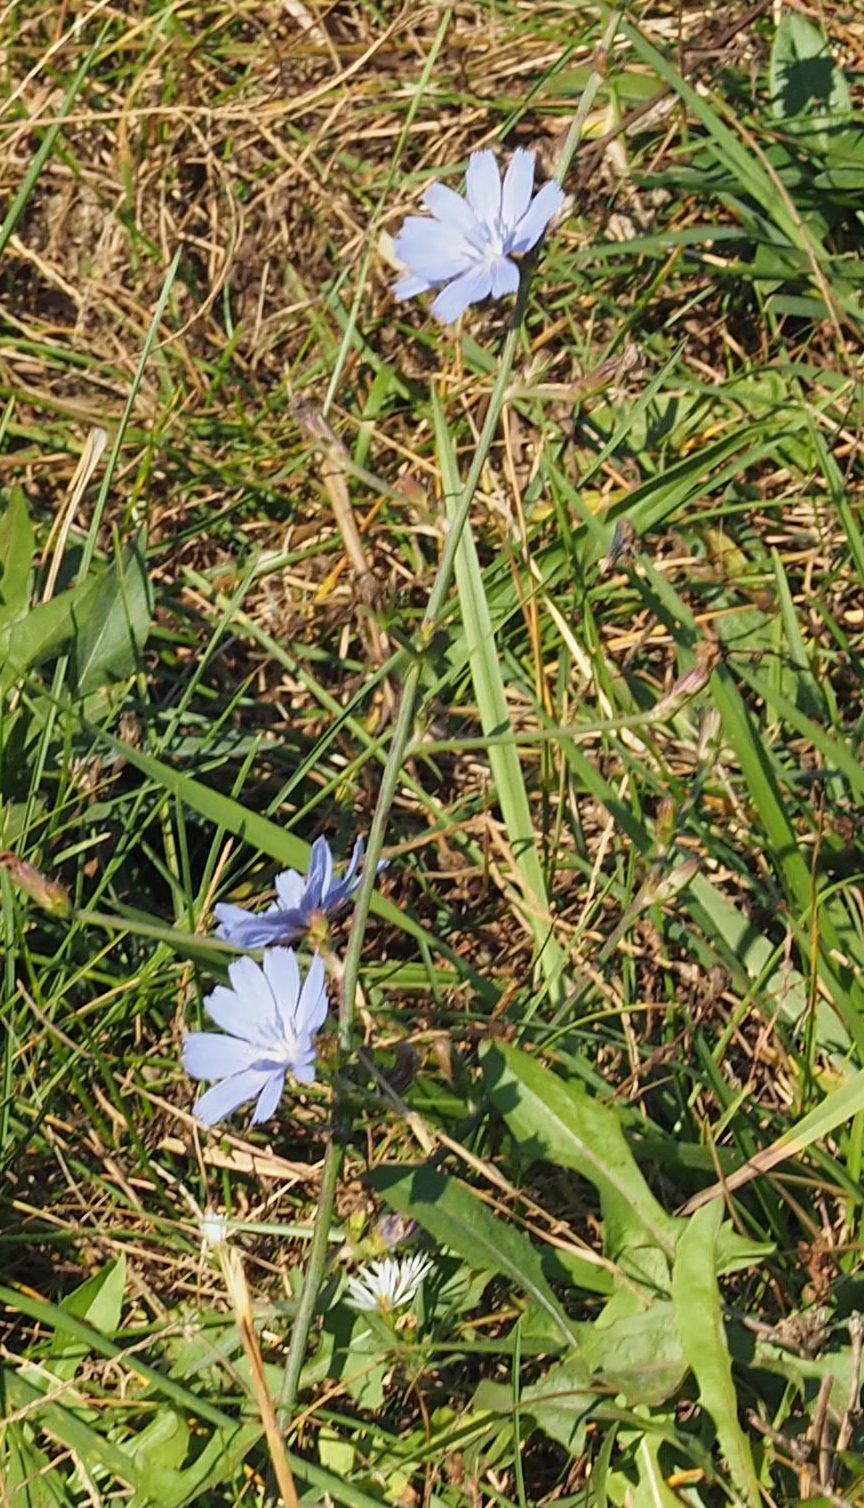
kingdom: Plantae
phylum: Tracheophyta
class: Magnoliopsida
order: Asterales
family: Asteraceae
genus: Cichorium
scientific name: Cichorium intybus
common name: Chicory
